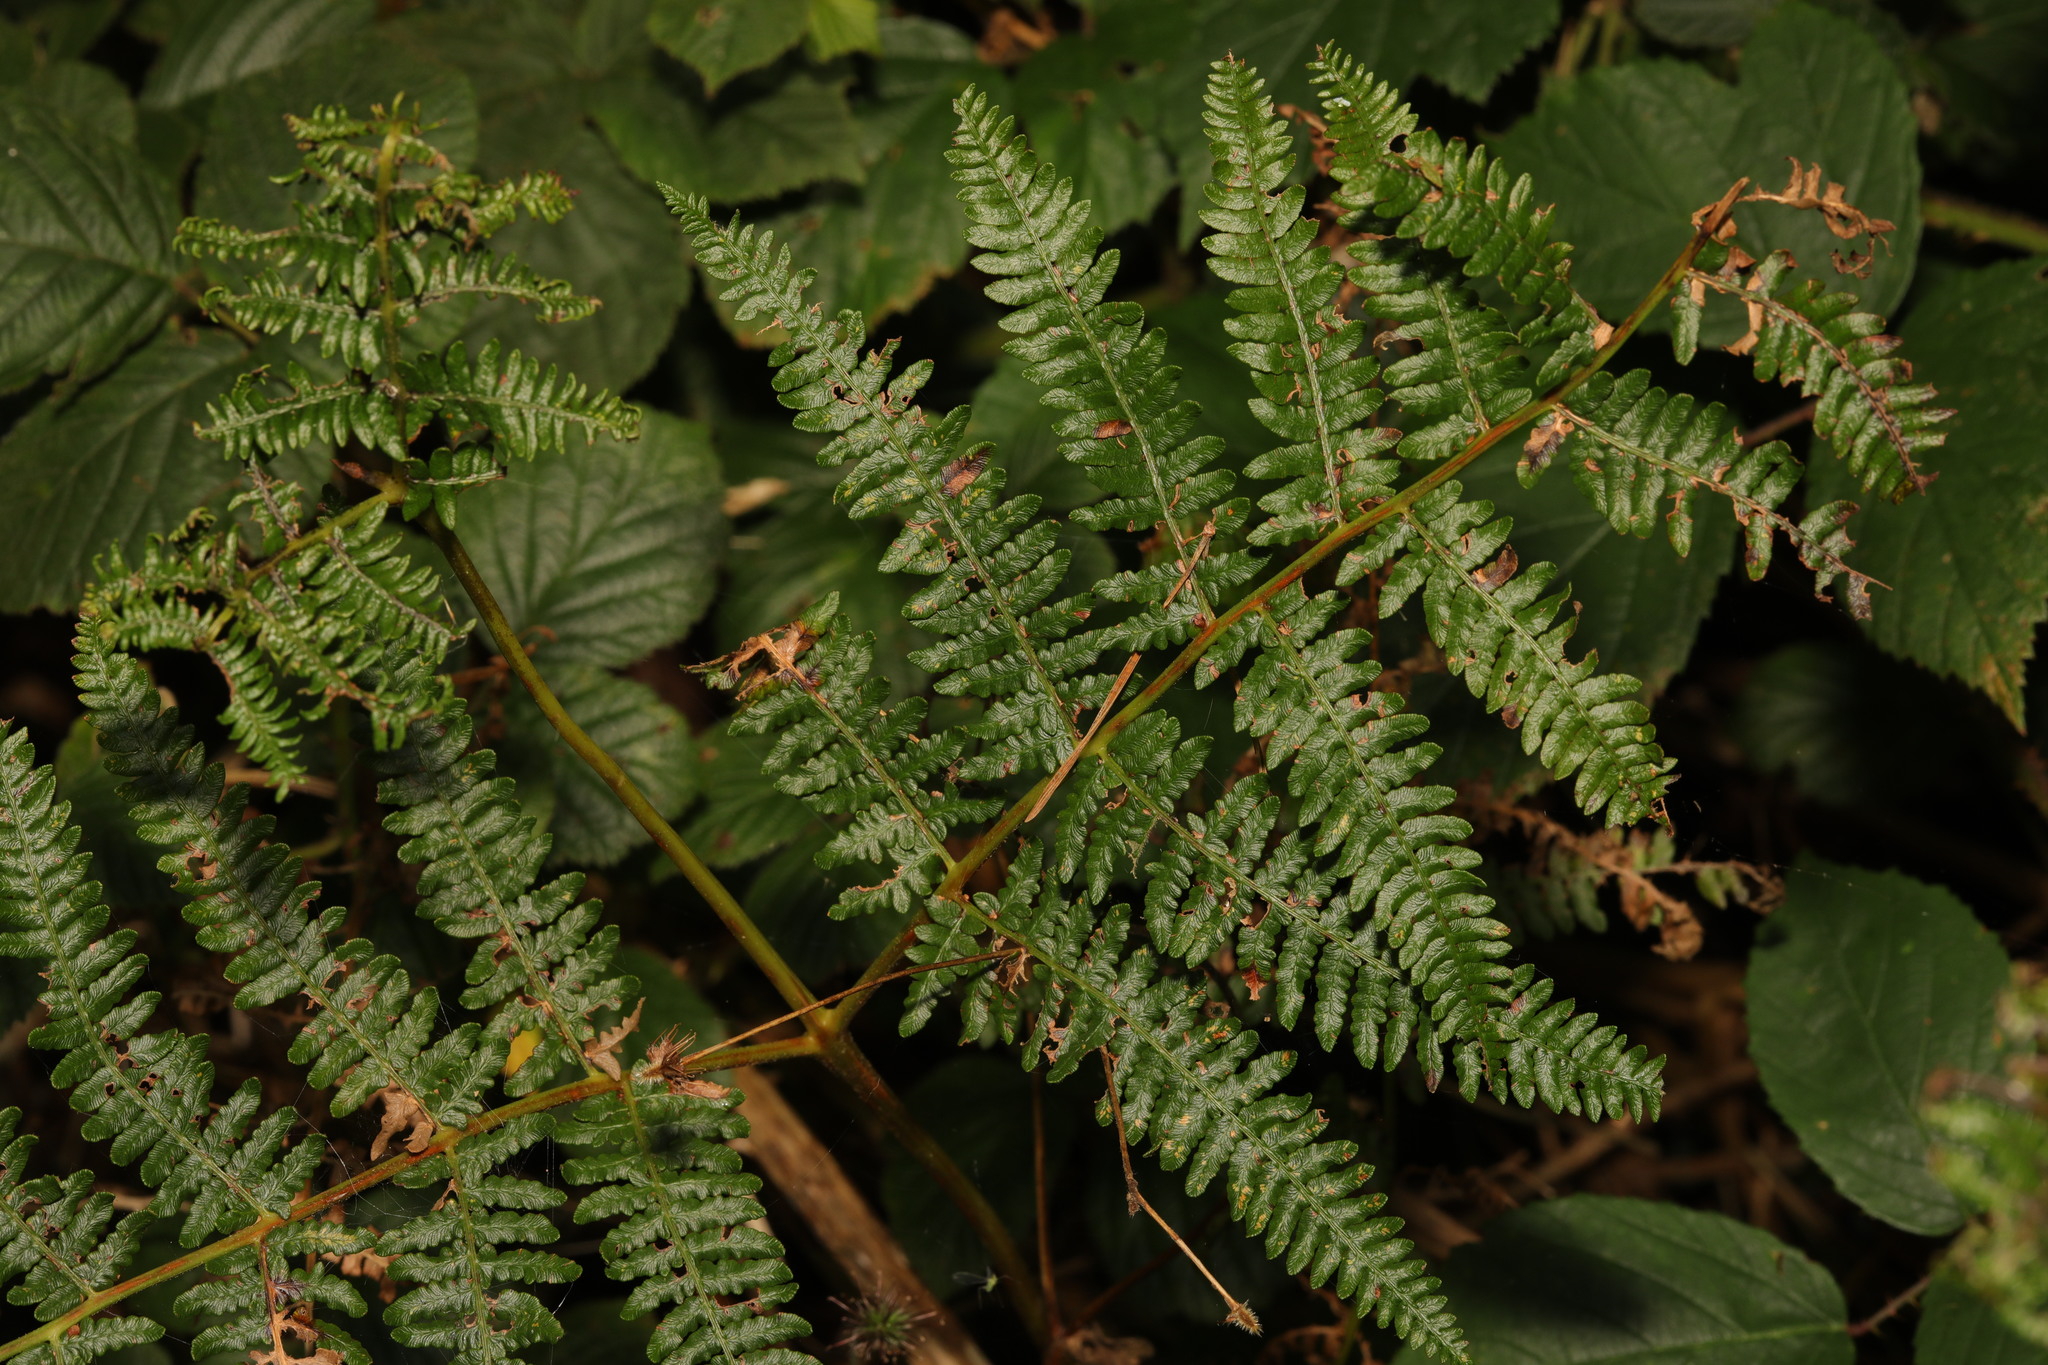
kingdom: Plantae
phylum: Tracheophyta
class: Polypodiopsida
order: Polypodiales
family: Dennstaedtiaceae
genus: Pteridium
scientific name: Pteridium aquilinum
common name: Bracken
